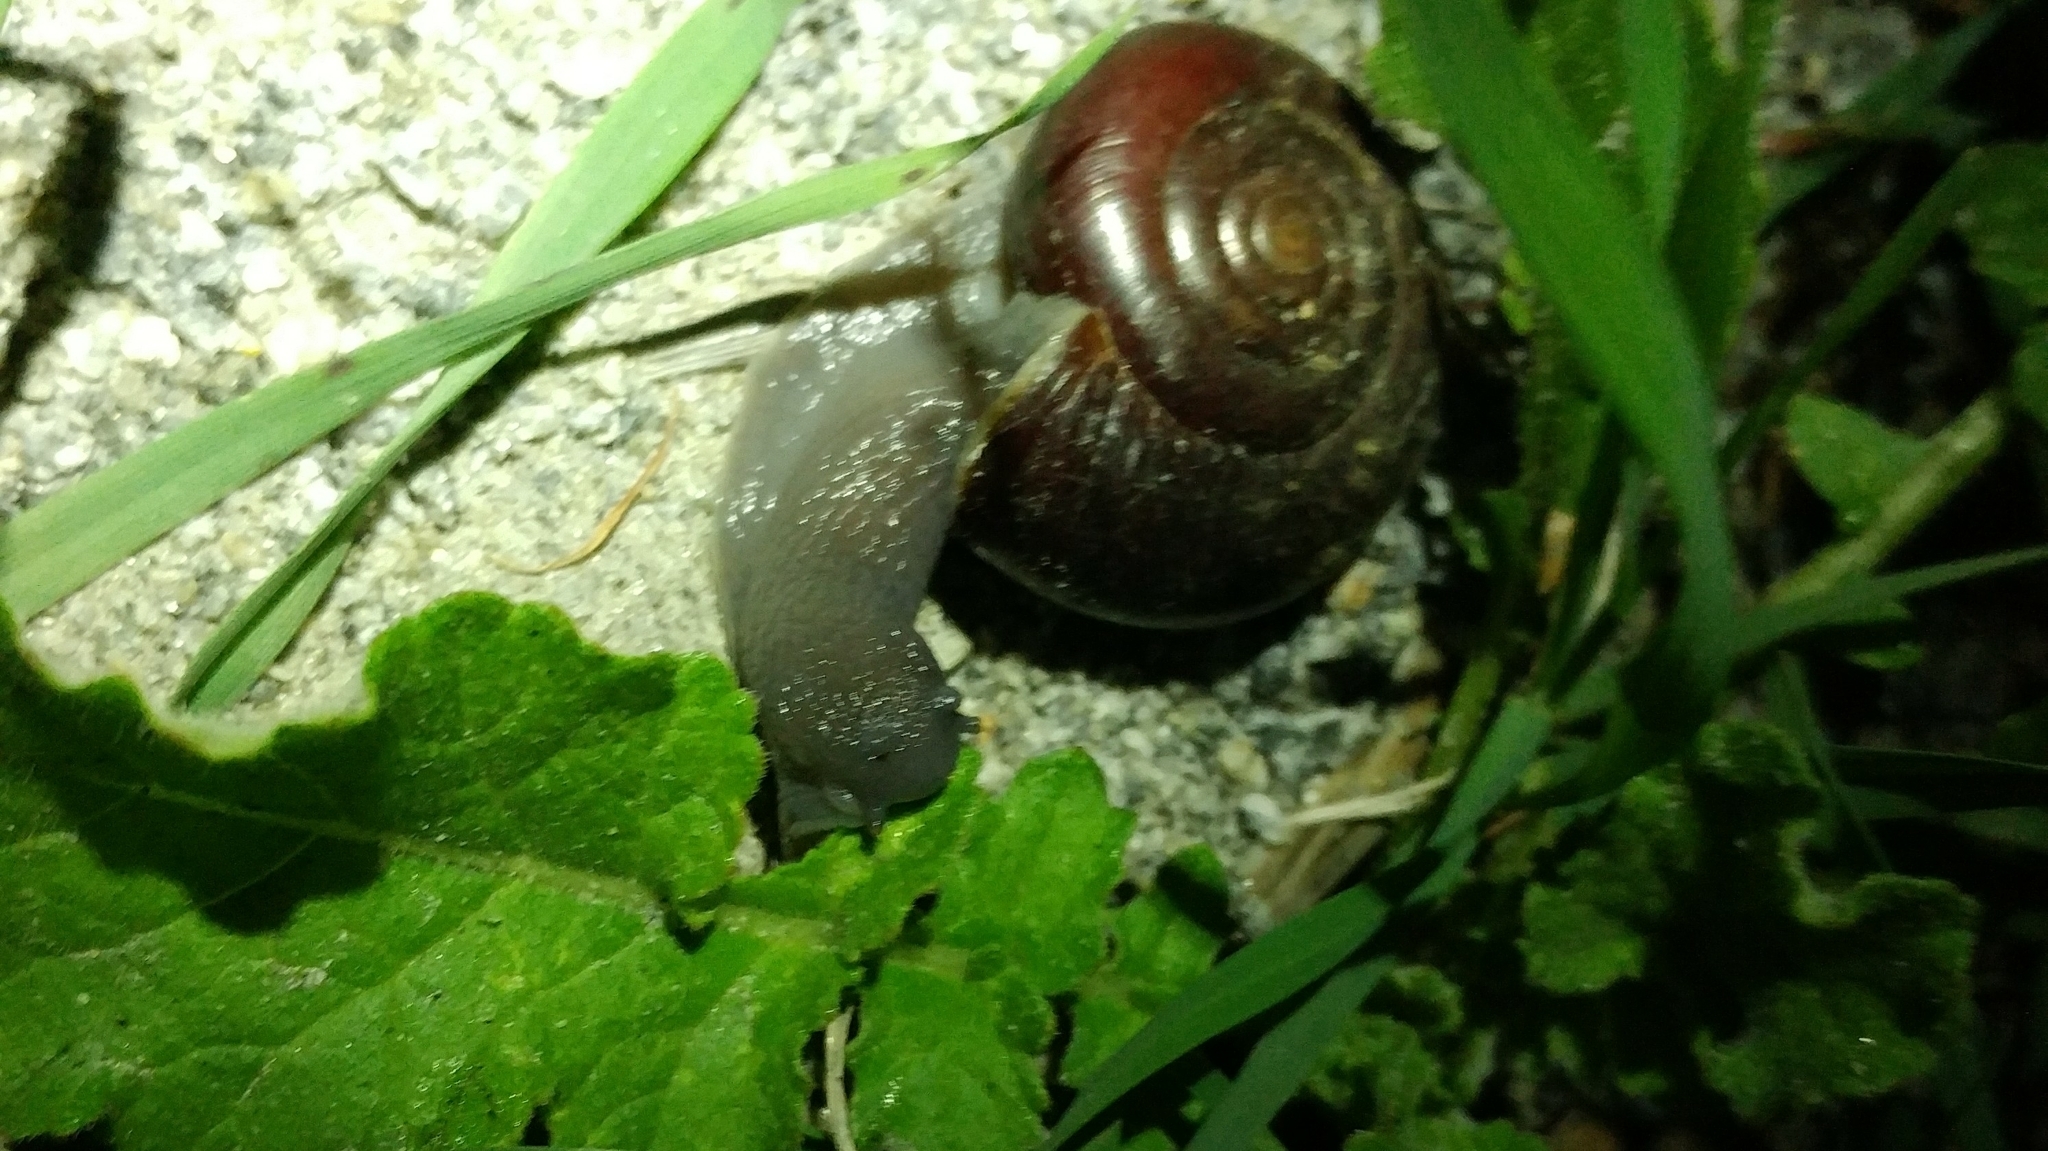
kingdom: Animalia
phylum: Mollusca
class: Gastropoda
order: Stylommatophora
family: Megomphicidae
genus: Glyptostoma
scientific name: Glyptostoma newberryanum
